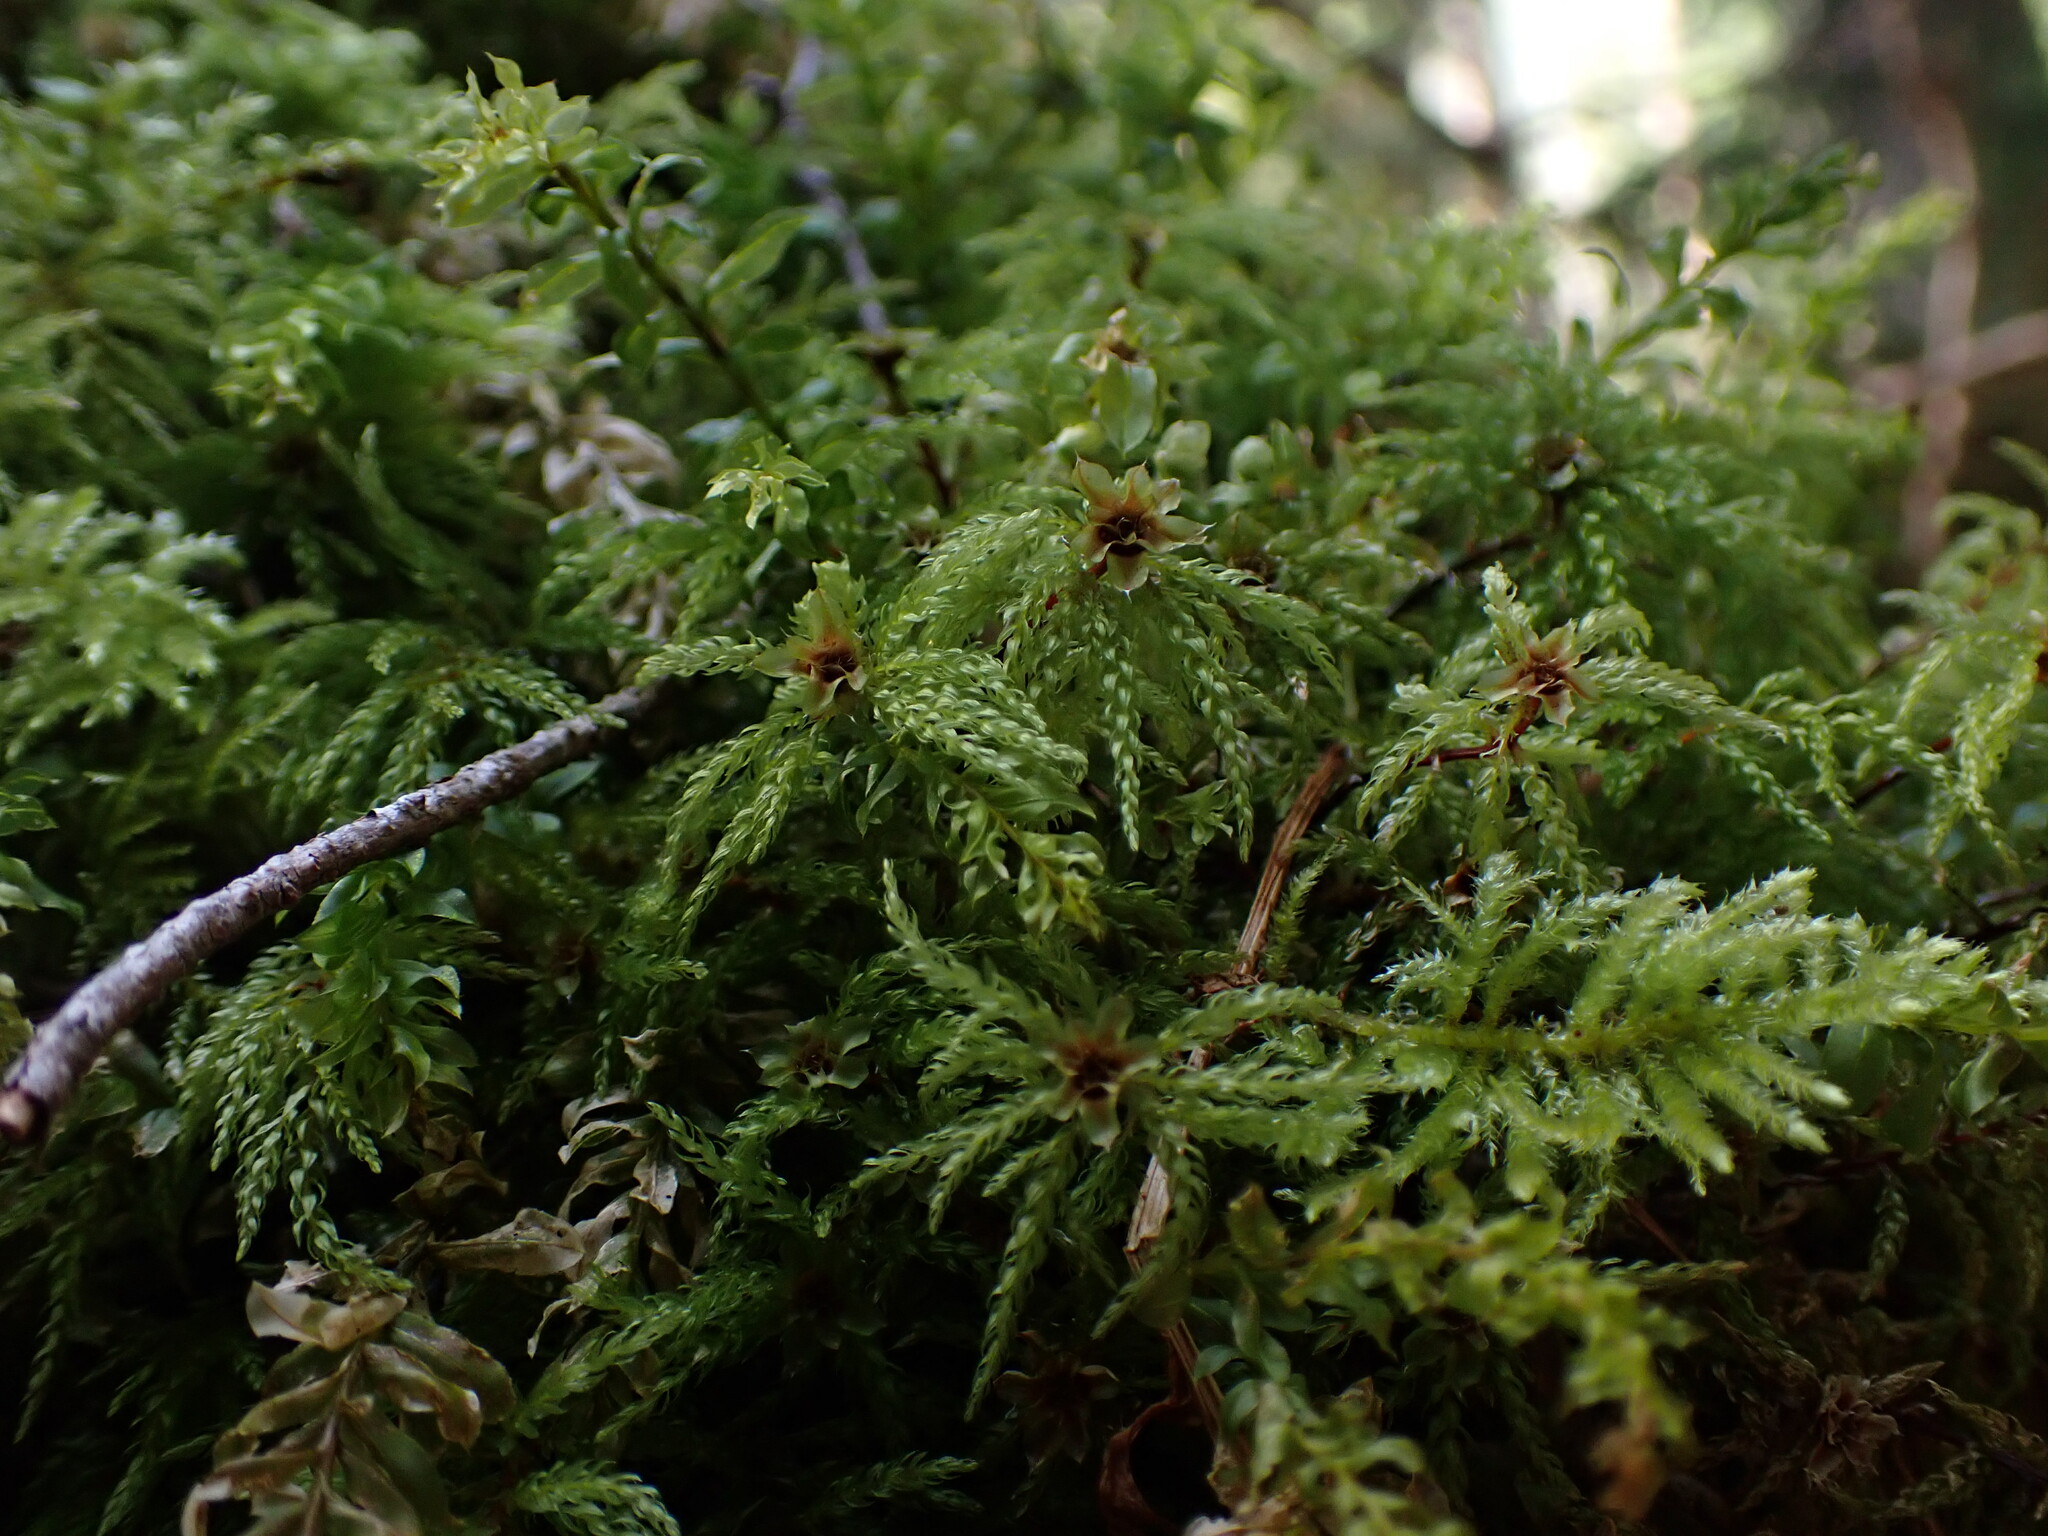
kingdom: Plantae
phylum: Bryophyta
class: Bryopsida
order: Bryales
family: Mniaceae
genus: Leucolepis
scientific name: Leucolepis acanthoneura
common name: Leucolepis umbrella moss
